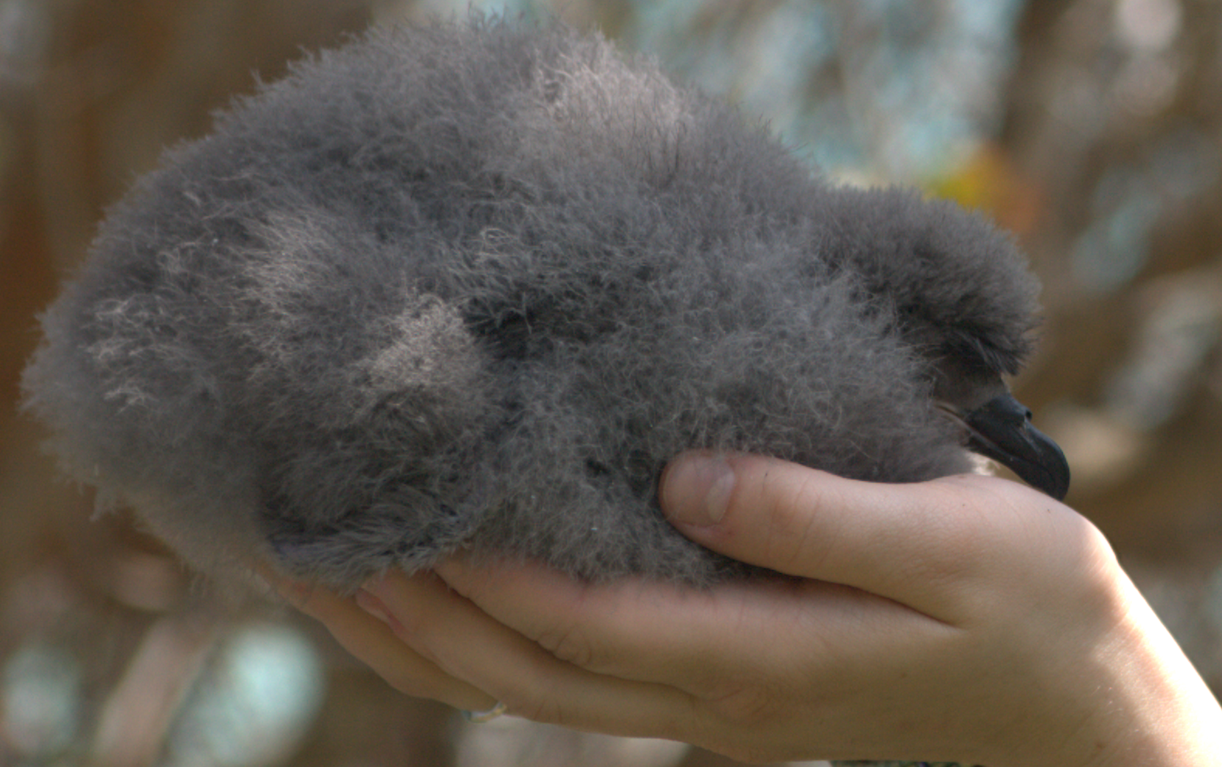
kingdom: Animalia
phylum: Chordata
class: Aves
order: Procellariiformes
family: Procellariidae
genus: Pterodroma
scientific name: Pterodroma cahow
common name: Bermuda petrel
